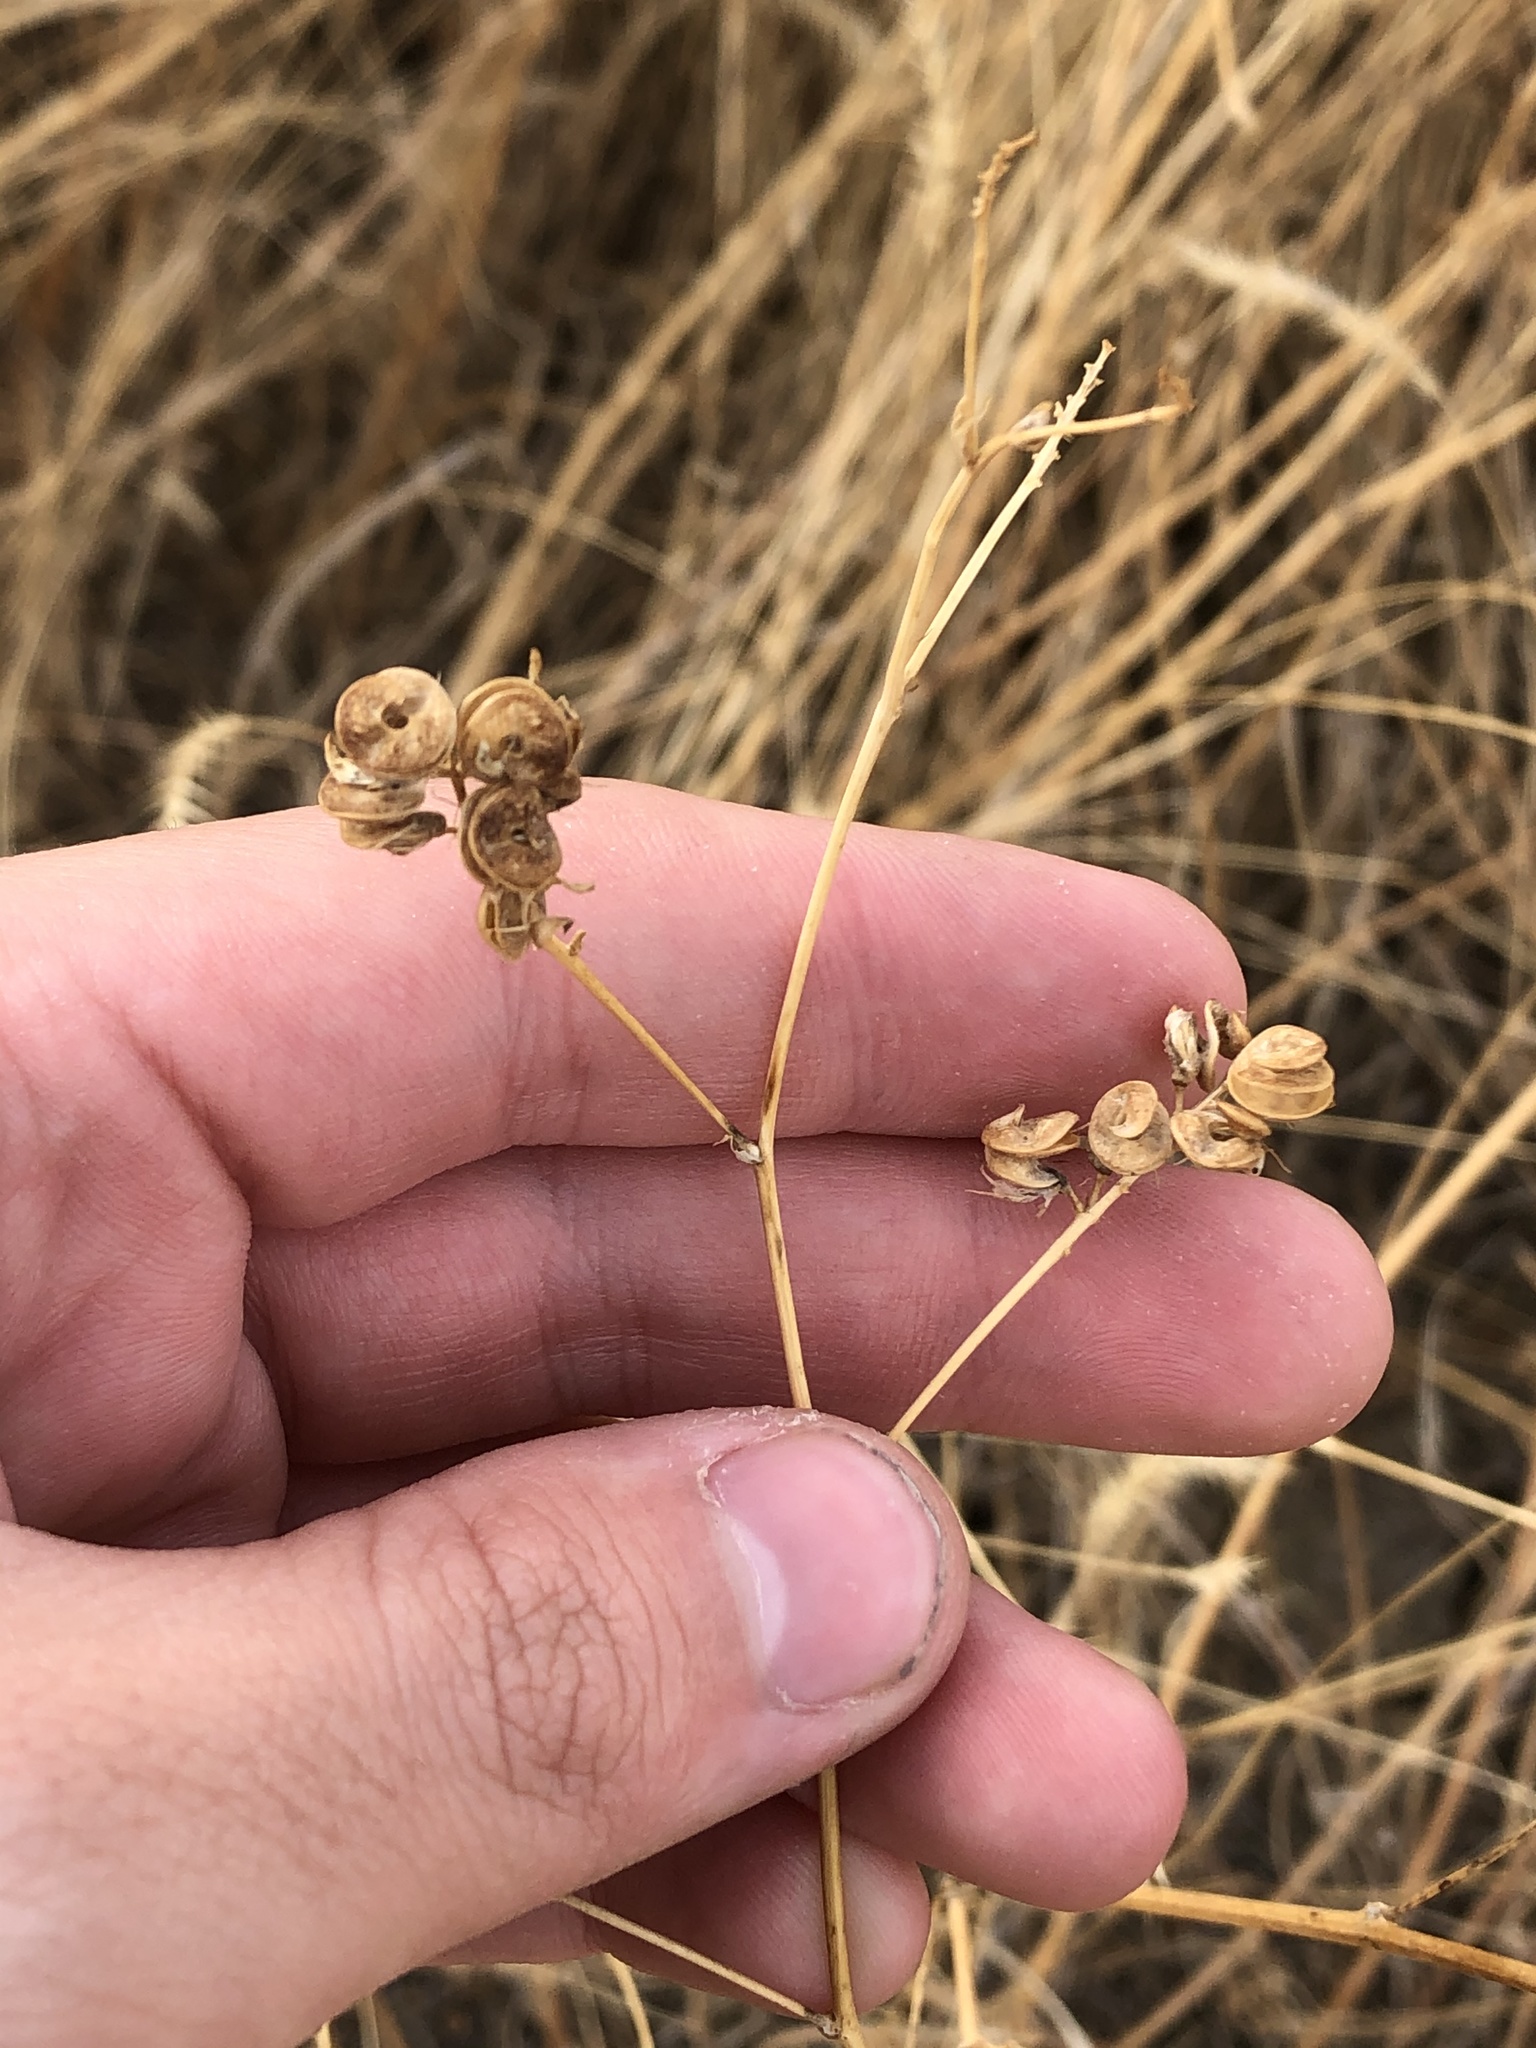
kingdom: Plantae
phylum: Tracheophyta
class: Magnoliopsida
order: Fabales
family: Fabaceae
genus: Medicago
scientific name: Medicago sativa
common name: Alfalfa
